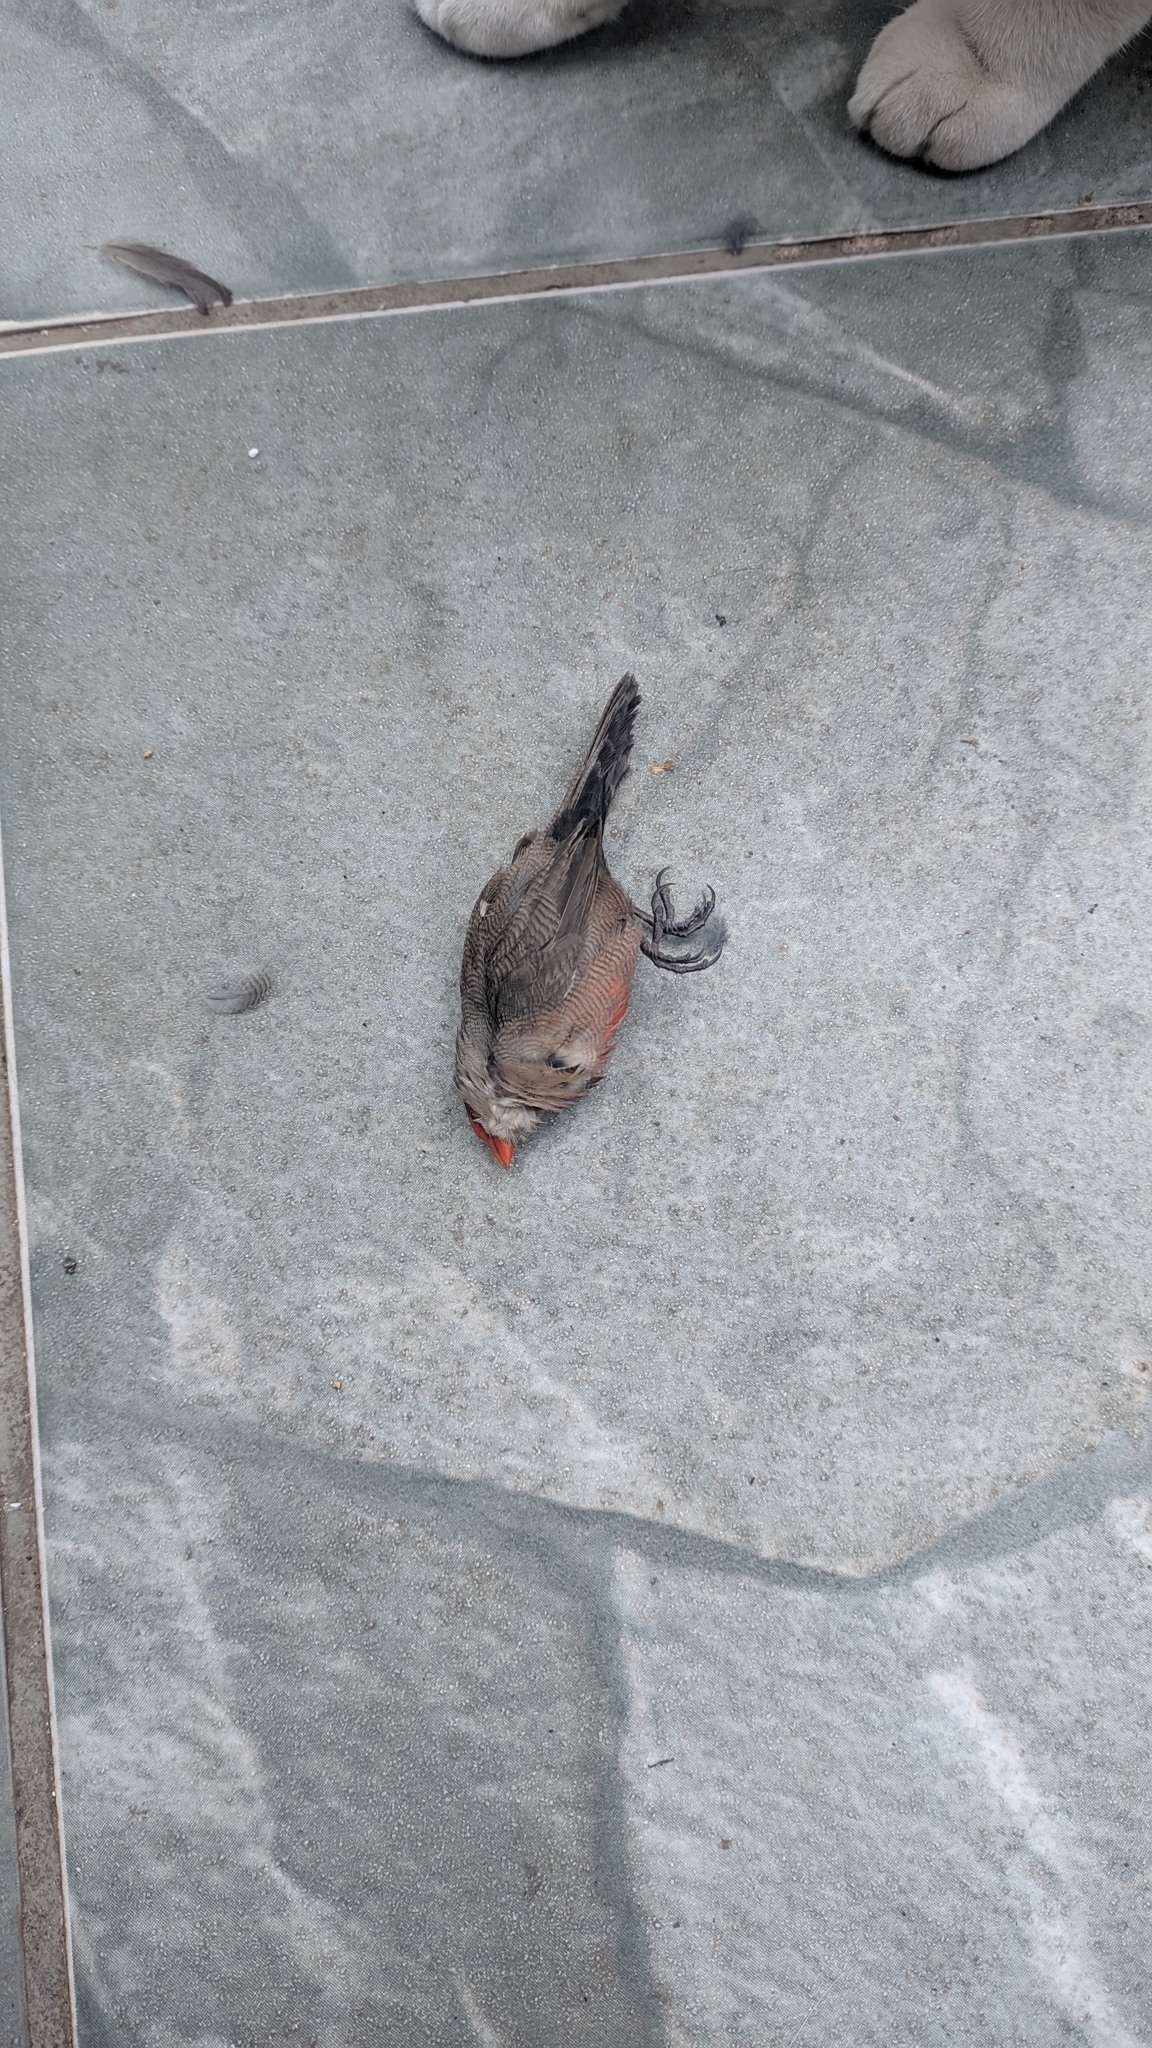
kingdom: Animalia
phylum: Chordata
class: Aves
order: Passeriformes
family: Estrildidae
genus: Estrilda
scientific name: Estrilda astrild
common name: Common waxbill
